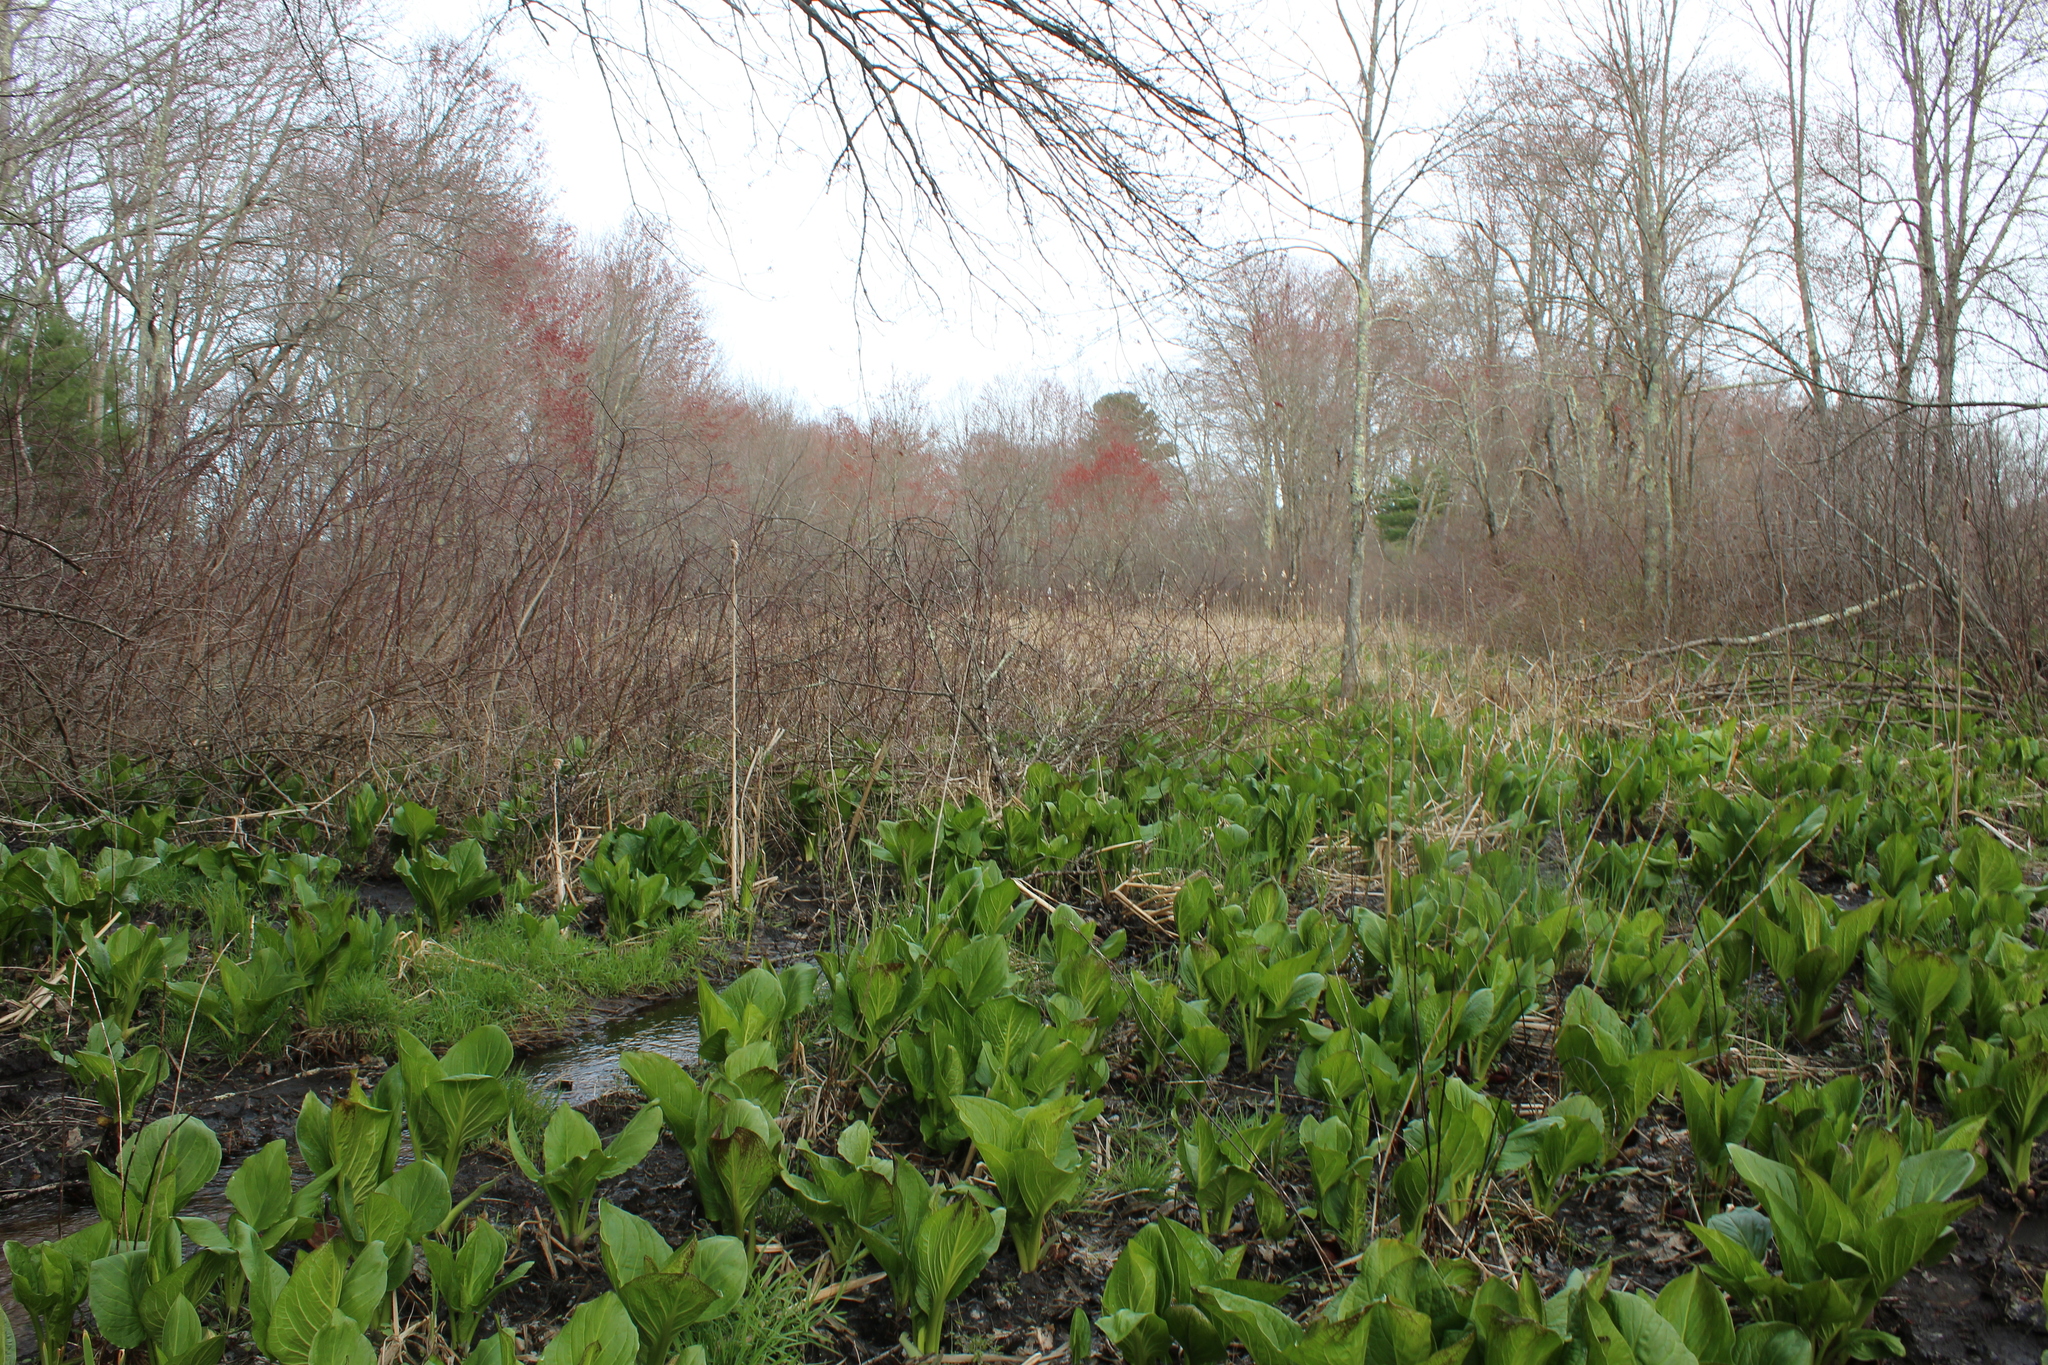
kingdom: Plantae
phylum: Tracheophyta
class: Liliopsida
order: Alismatales
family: Araceae
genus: Symplocarpus
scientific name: Symplocarpus foetidus
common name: Eastern skunk cabbage
